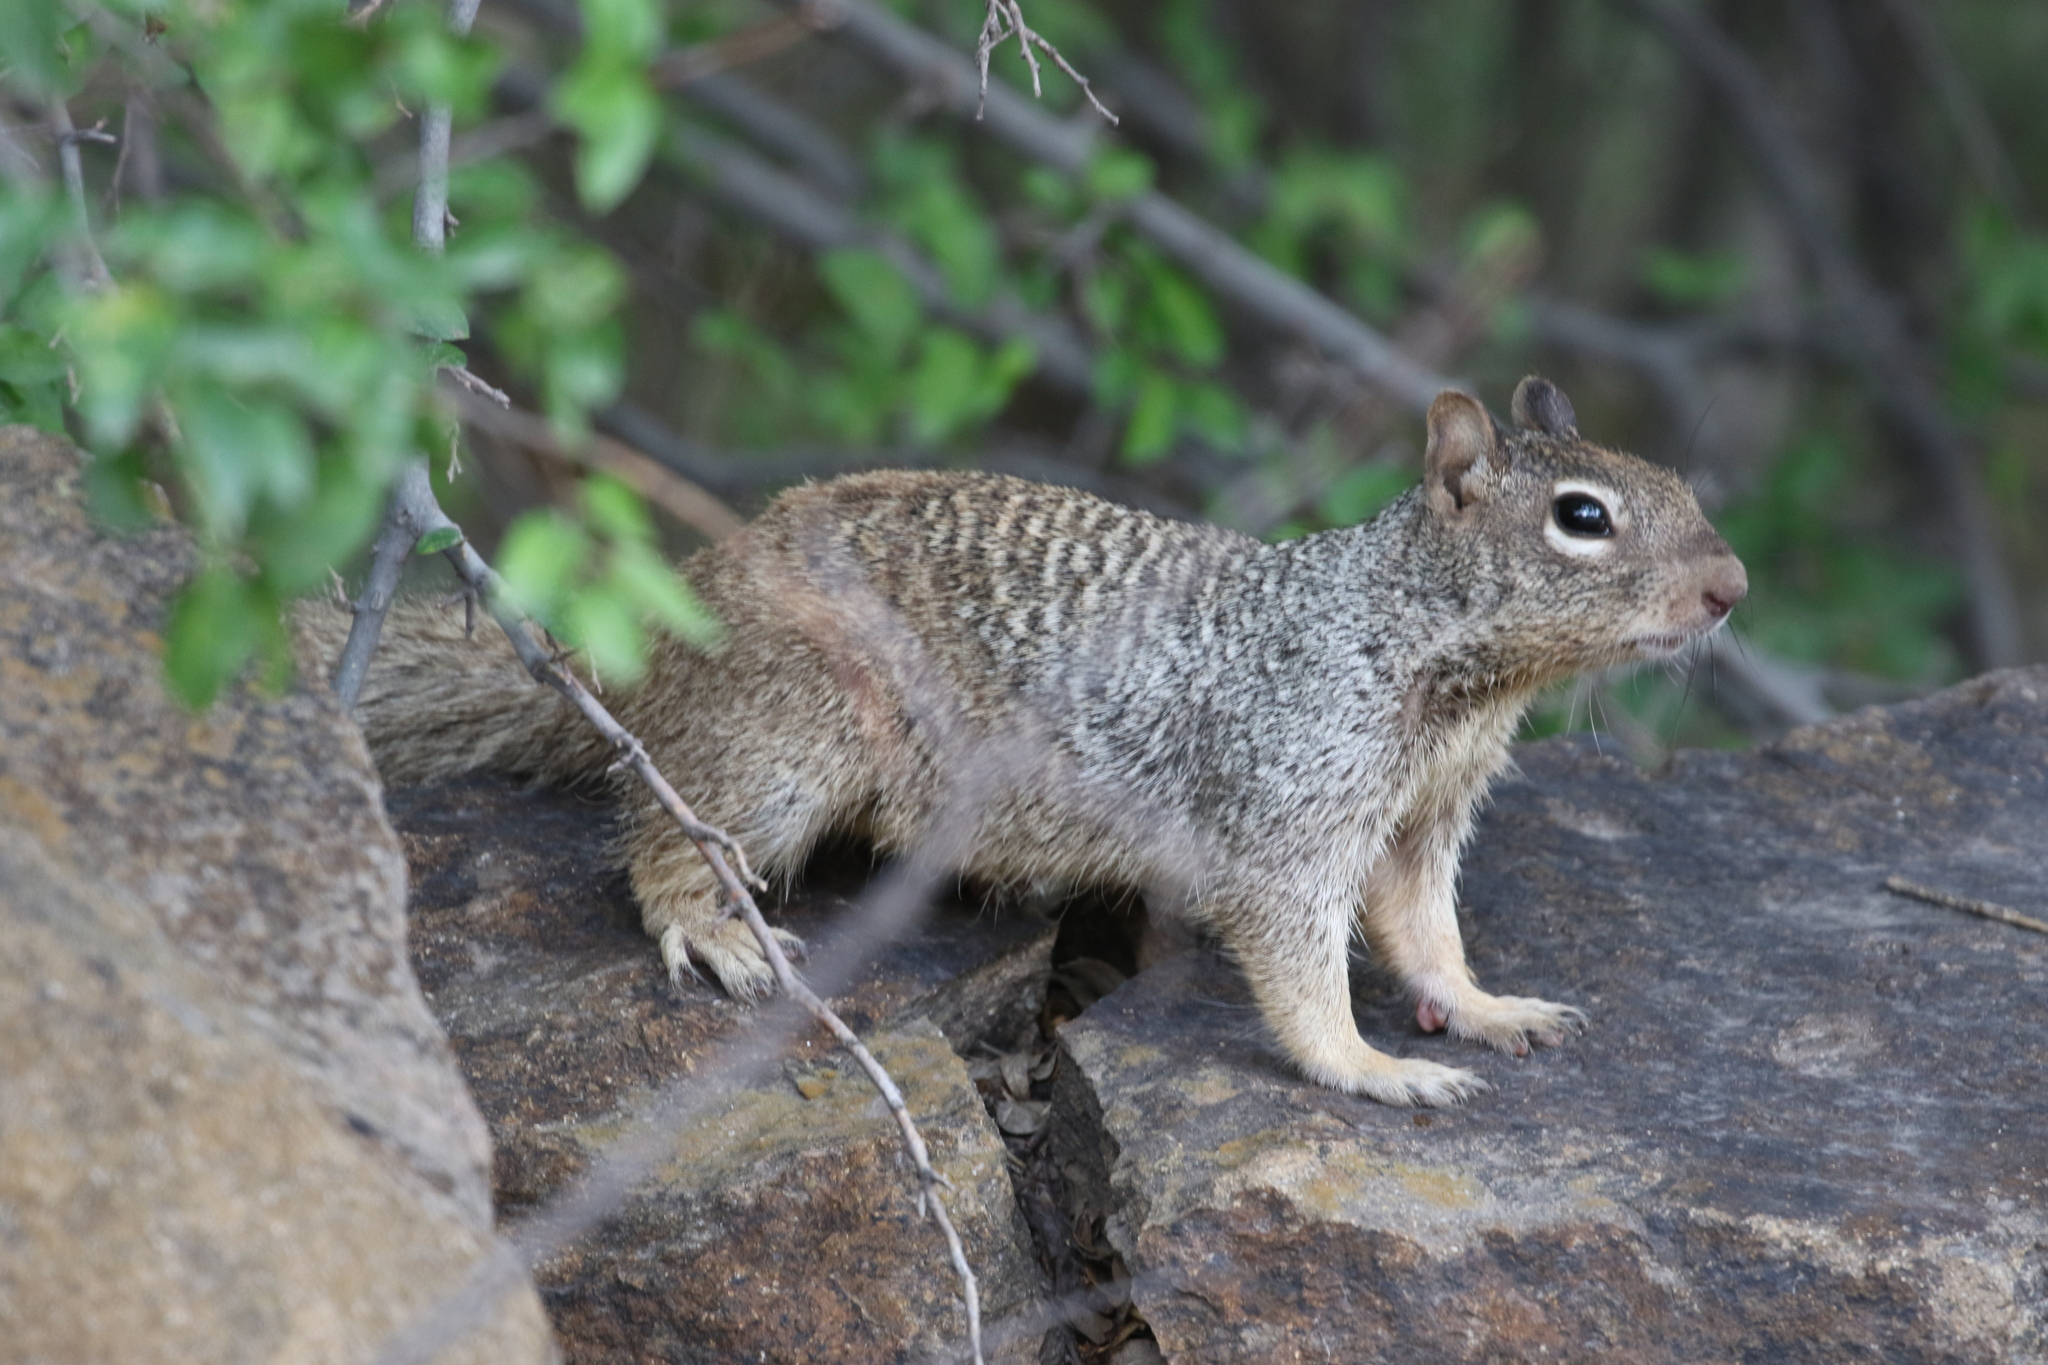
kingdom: Animalia
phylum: Chordata
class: Mammalia
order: Rodentia
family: Sciuridae
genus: Otospermophilus
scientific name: Otospermophilus variegatus
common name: Rock squirrel
